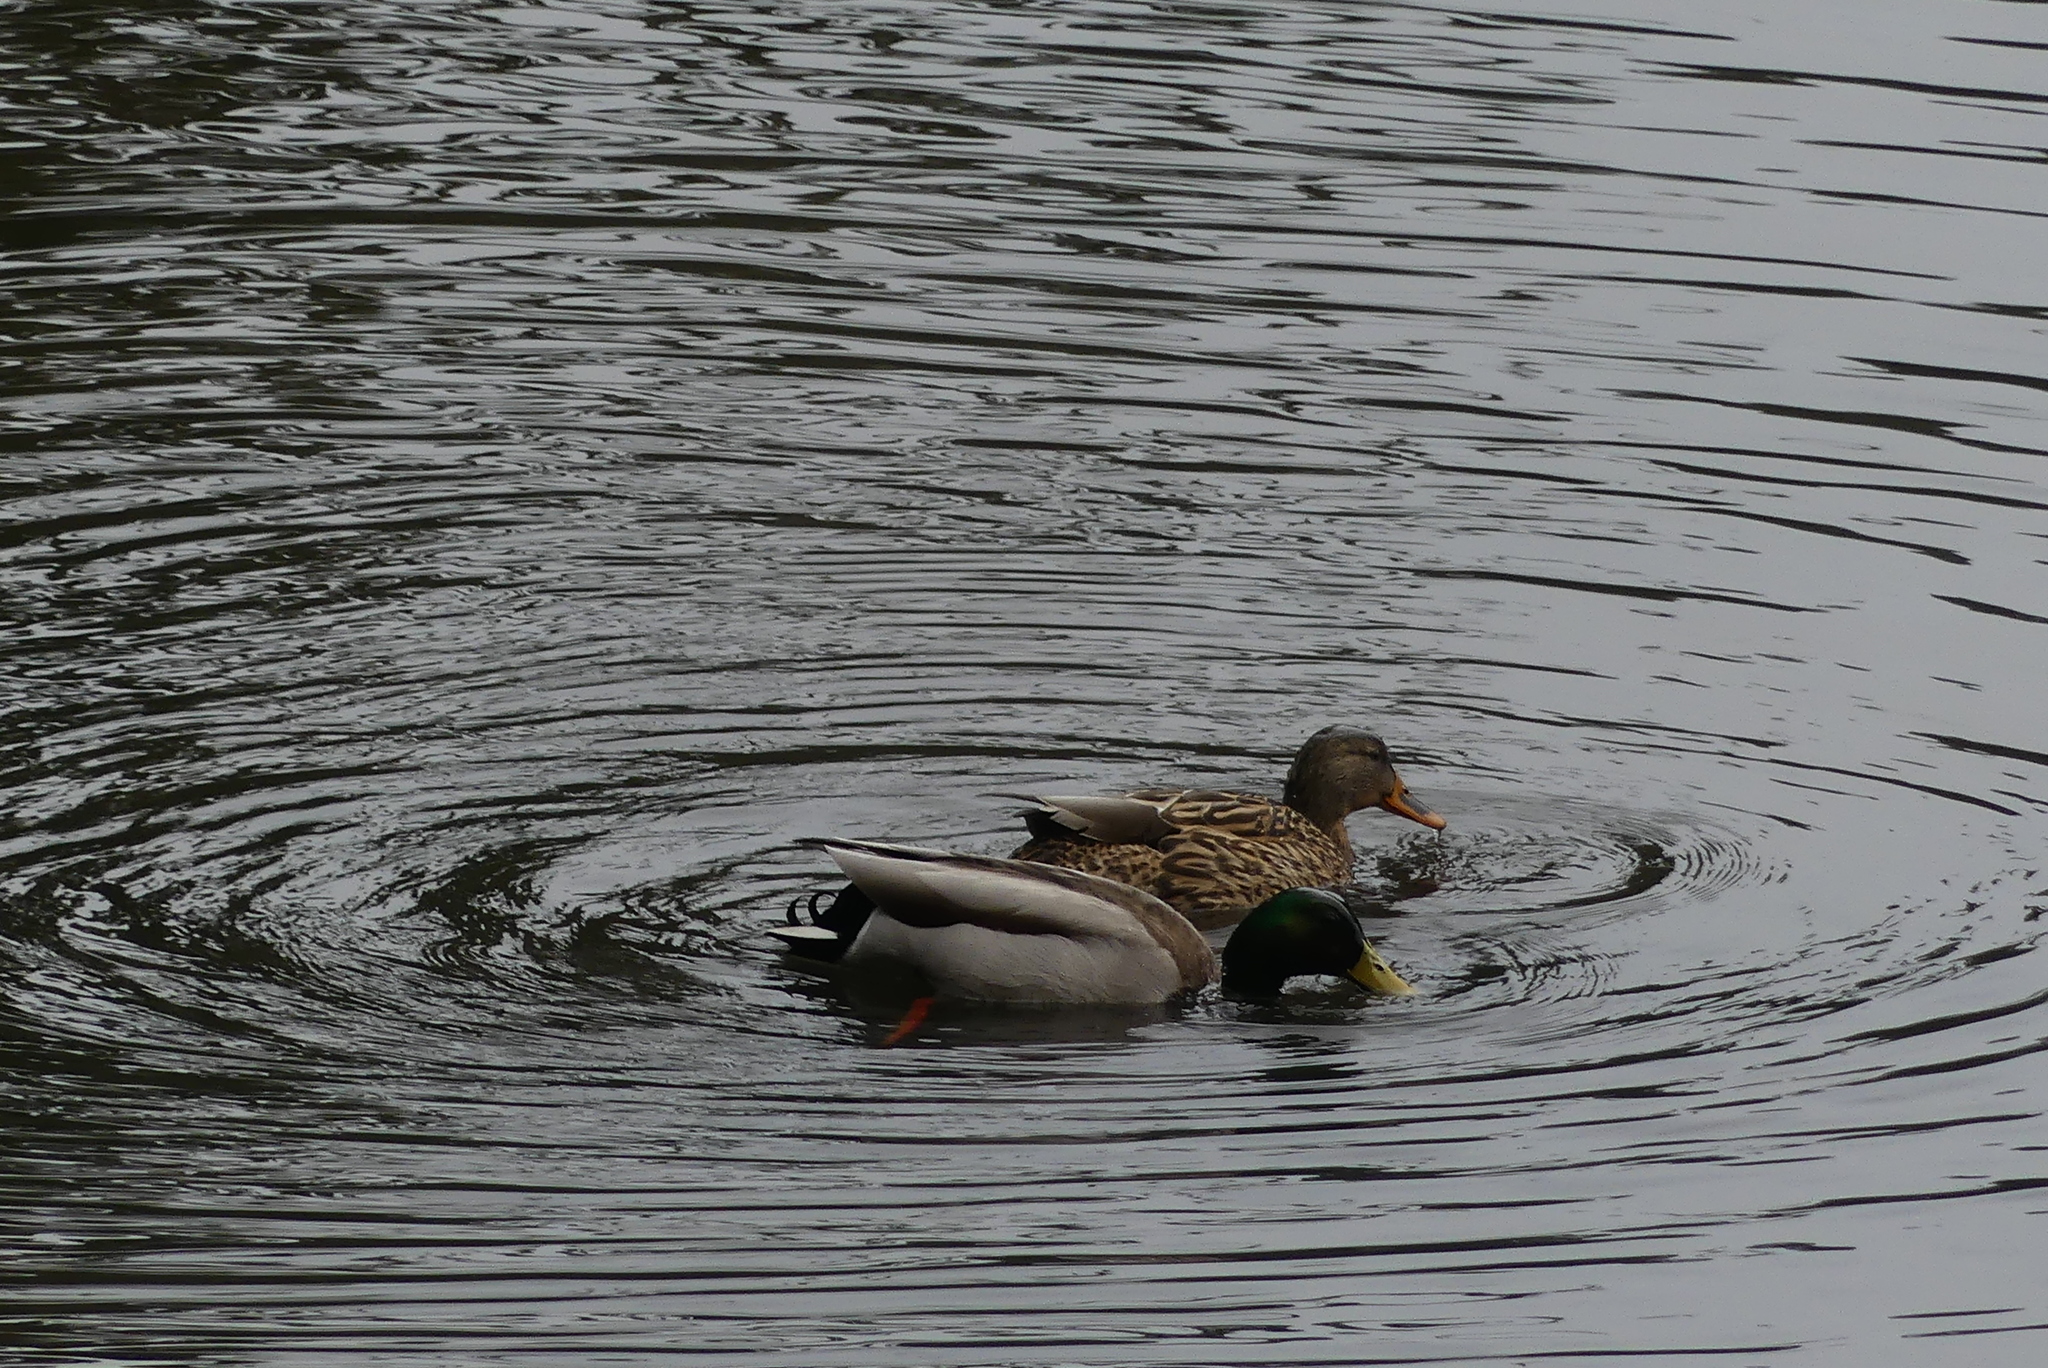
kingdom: Animalia
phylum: Chordata
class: Aves
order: Anseriformes
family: Anatidae
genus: Anas
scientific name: Anas platyrhynchos
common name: Mallard
